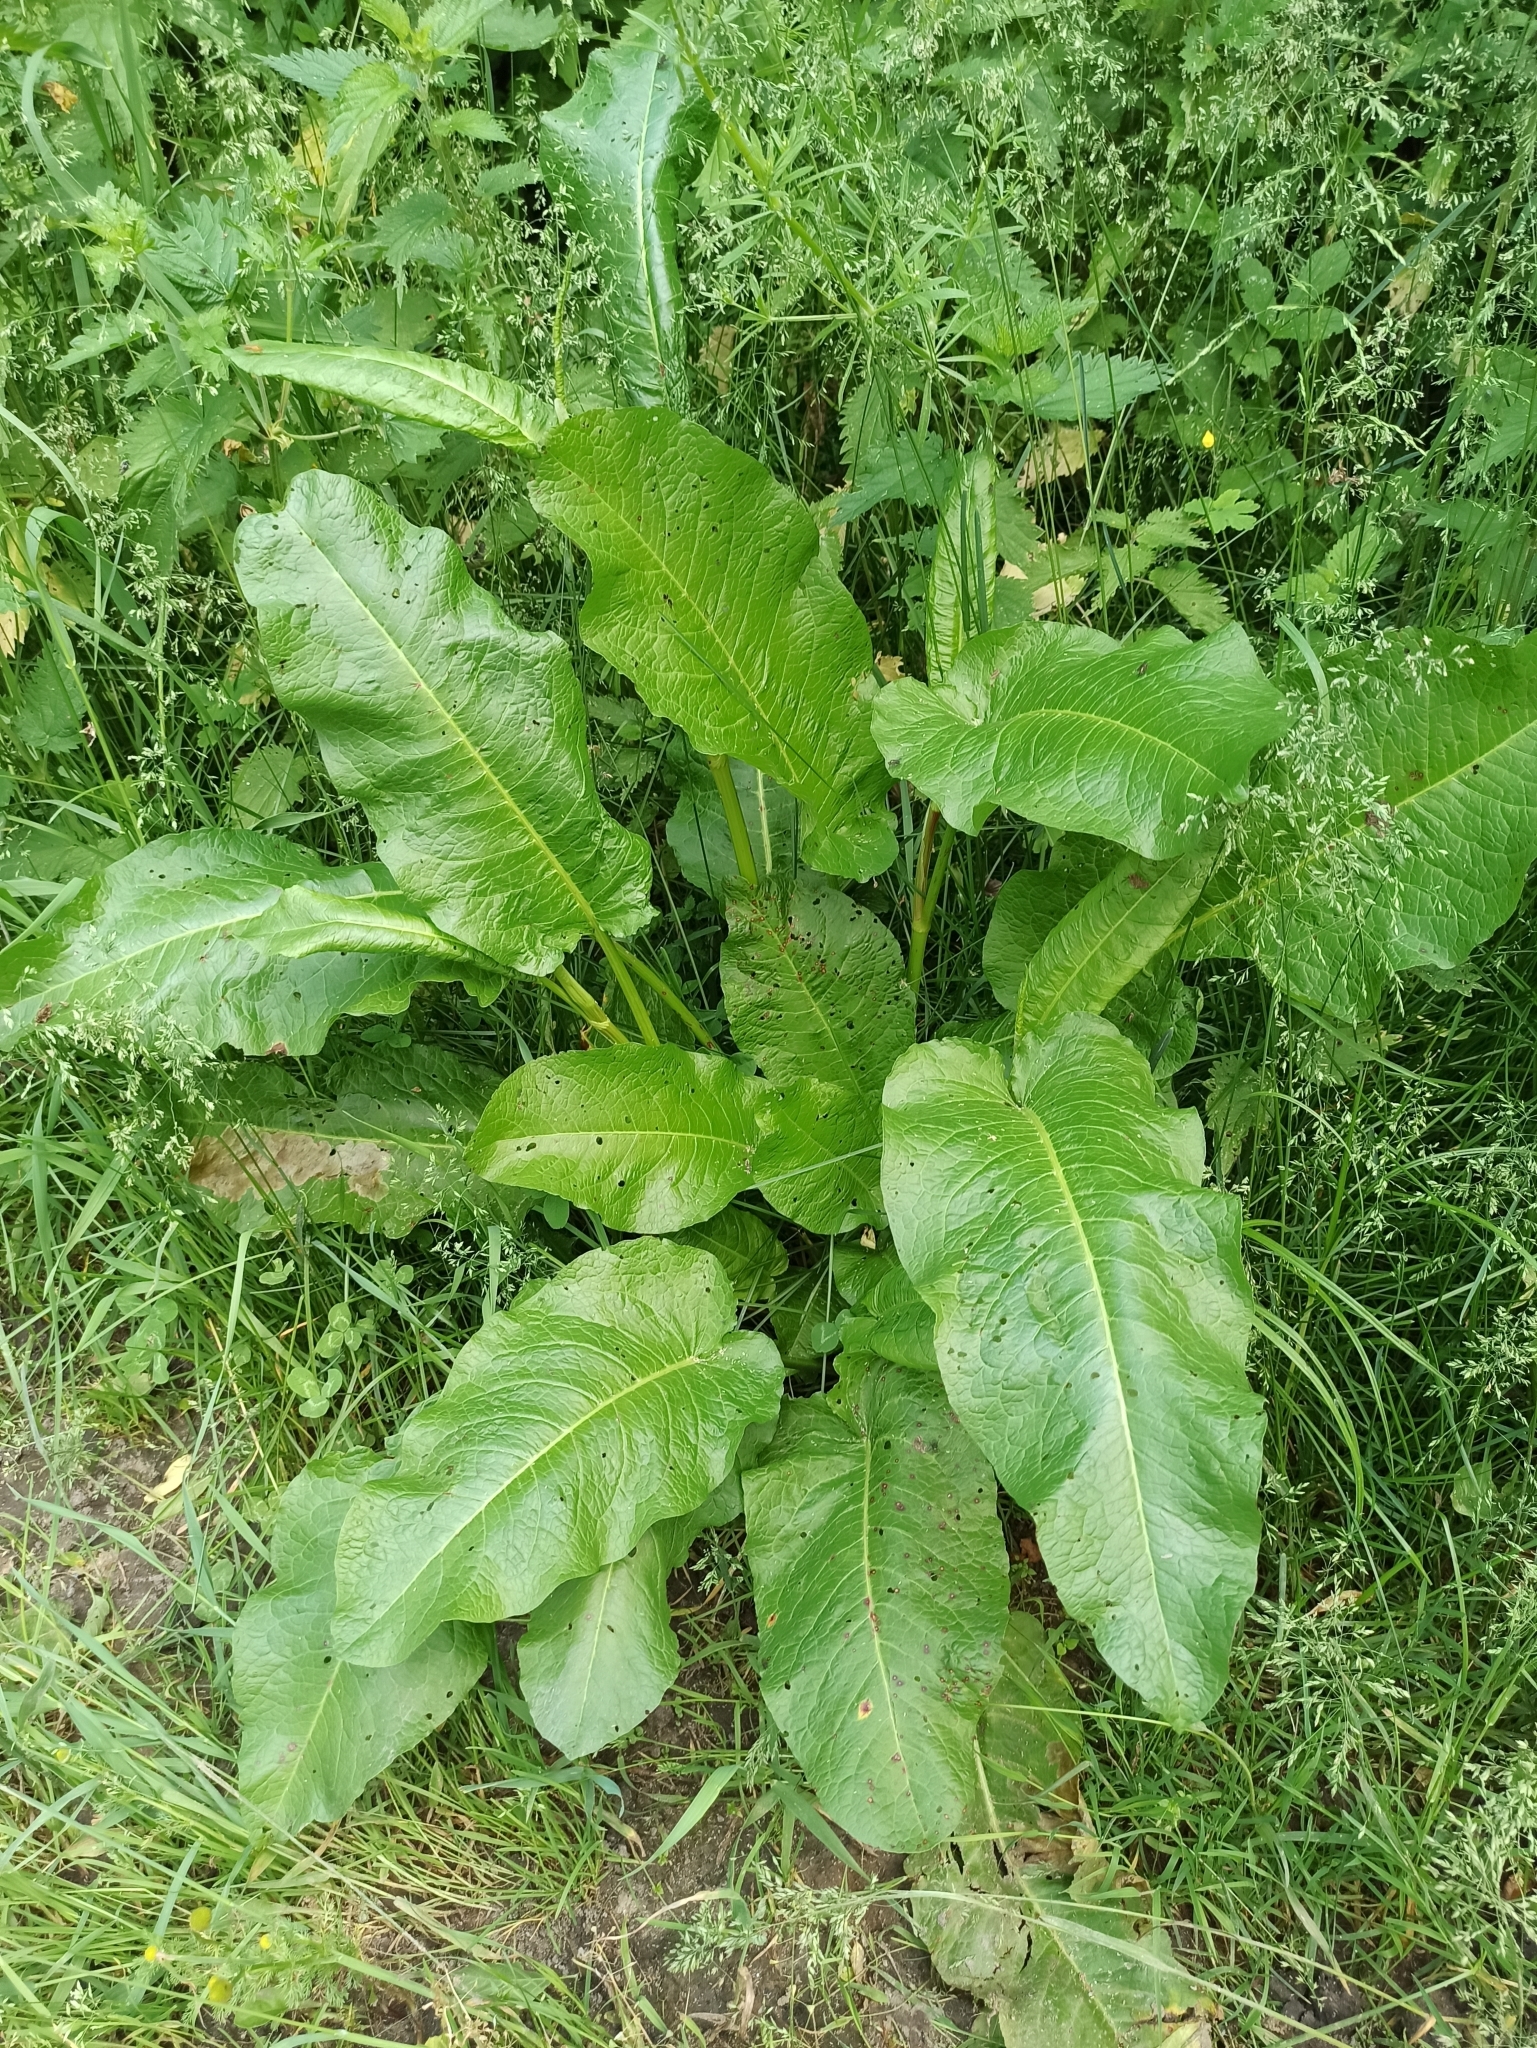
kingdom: Plantae
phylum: Tracheophyta
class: Magnoliopsida
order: Caryophyllales
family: Polygonaceae
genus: Rumex
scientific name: Rumex obtusifolius
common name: Bitter dock
